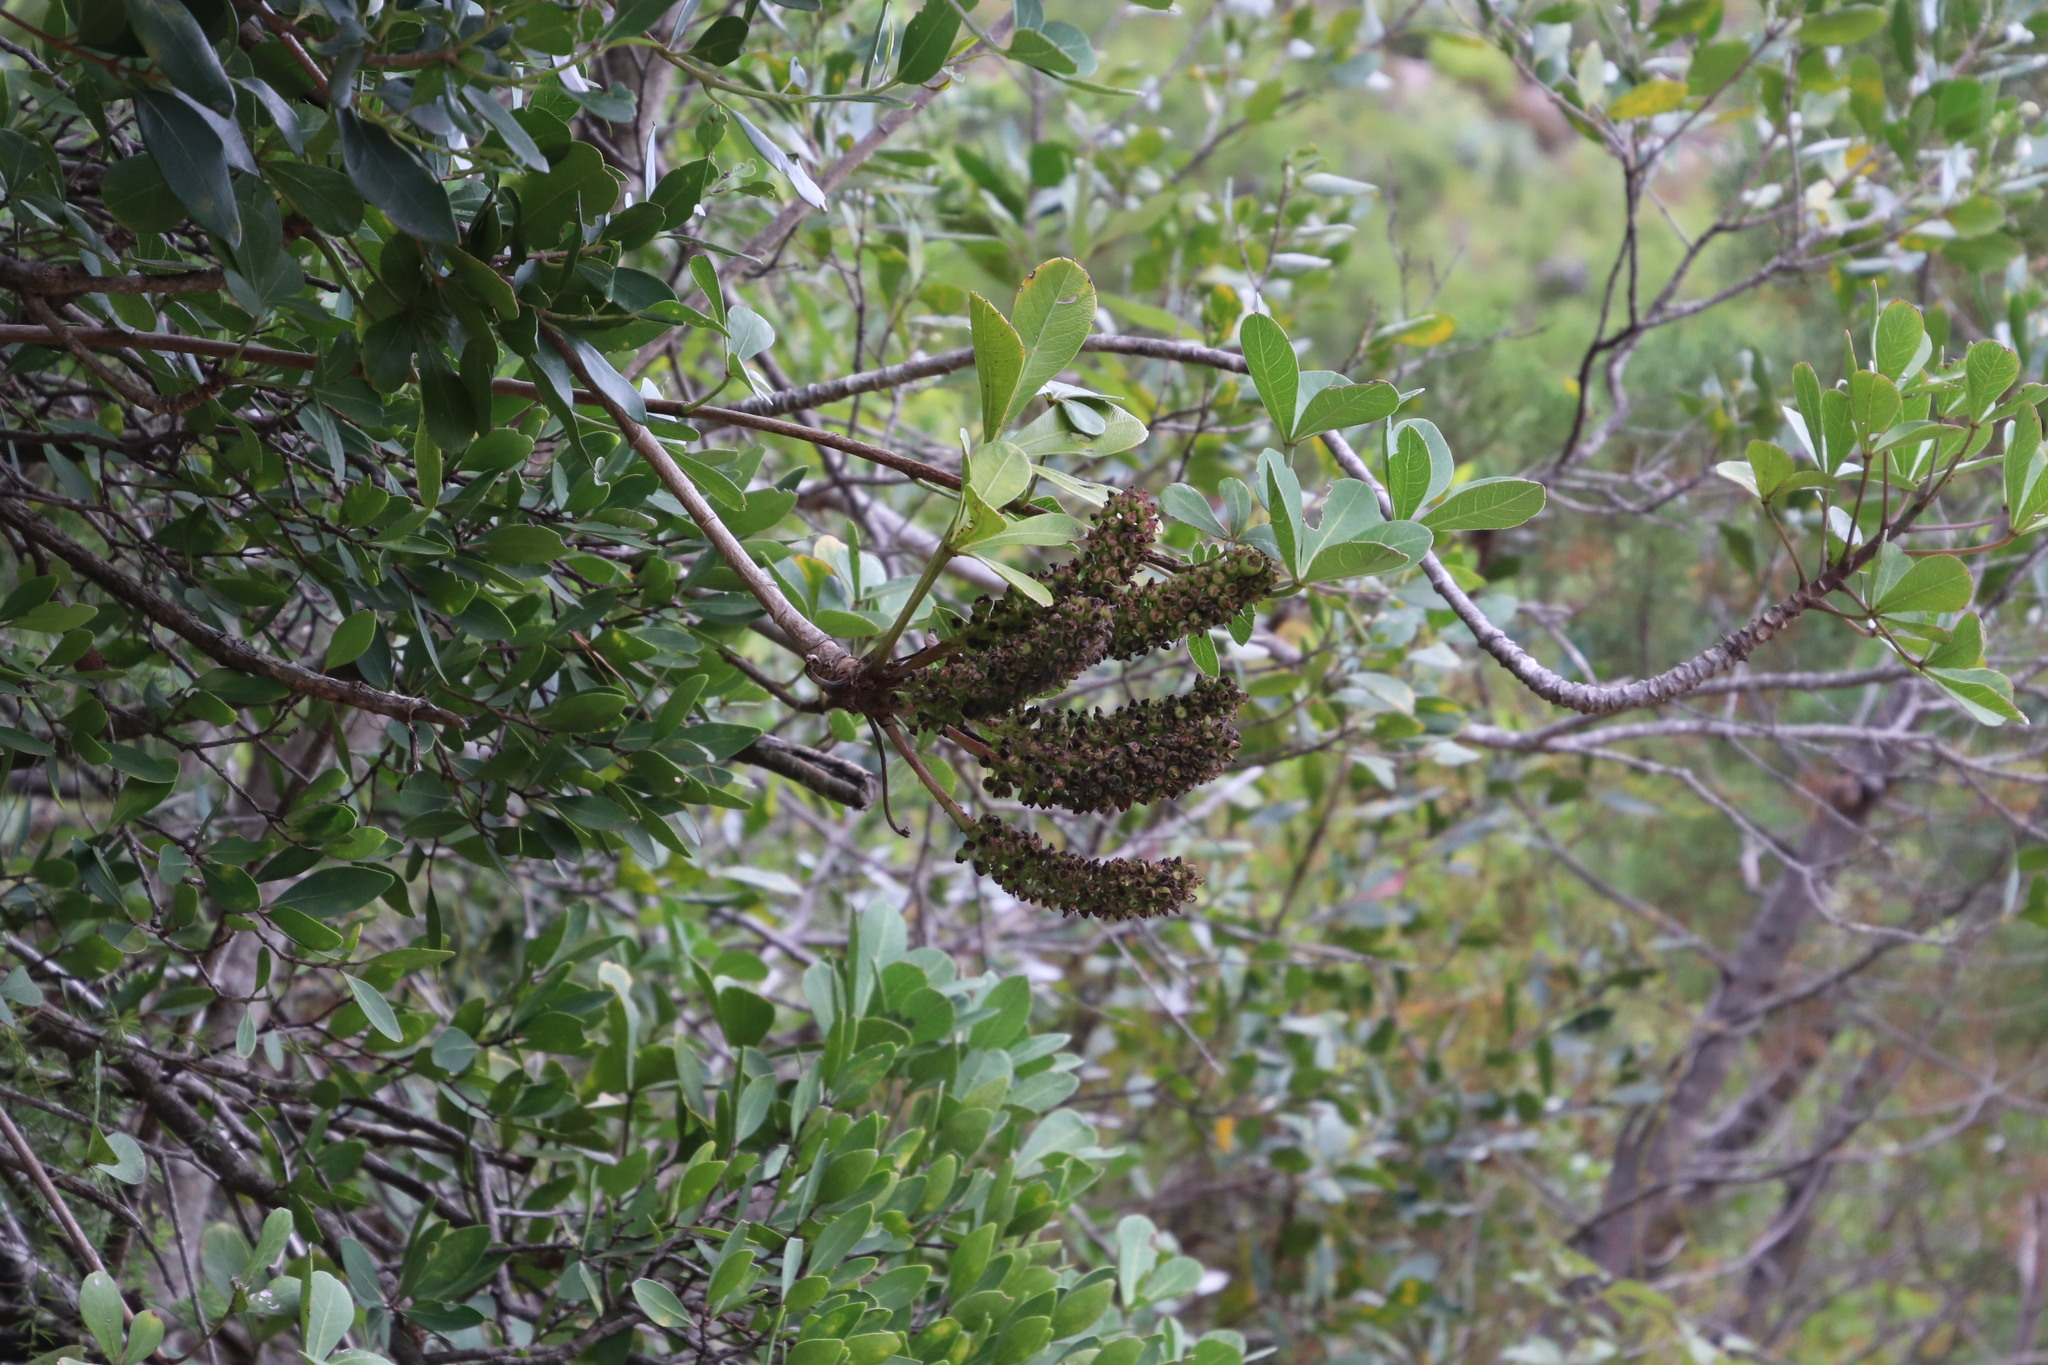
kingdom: Plantae
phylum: Tracheophyta
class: Magnoliopsida
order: Apiales
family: Araliaceae
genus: Cussonia
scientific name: Cussonia thyrsiflora
